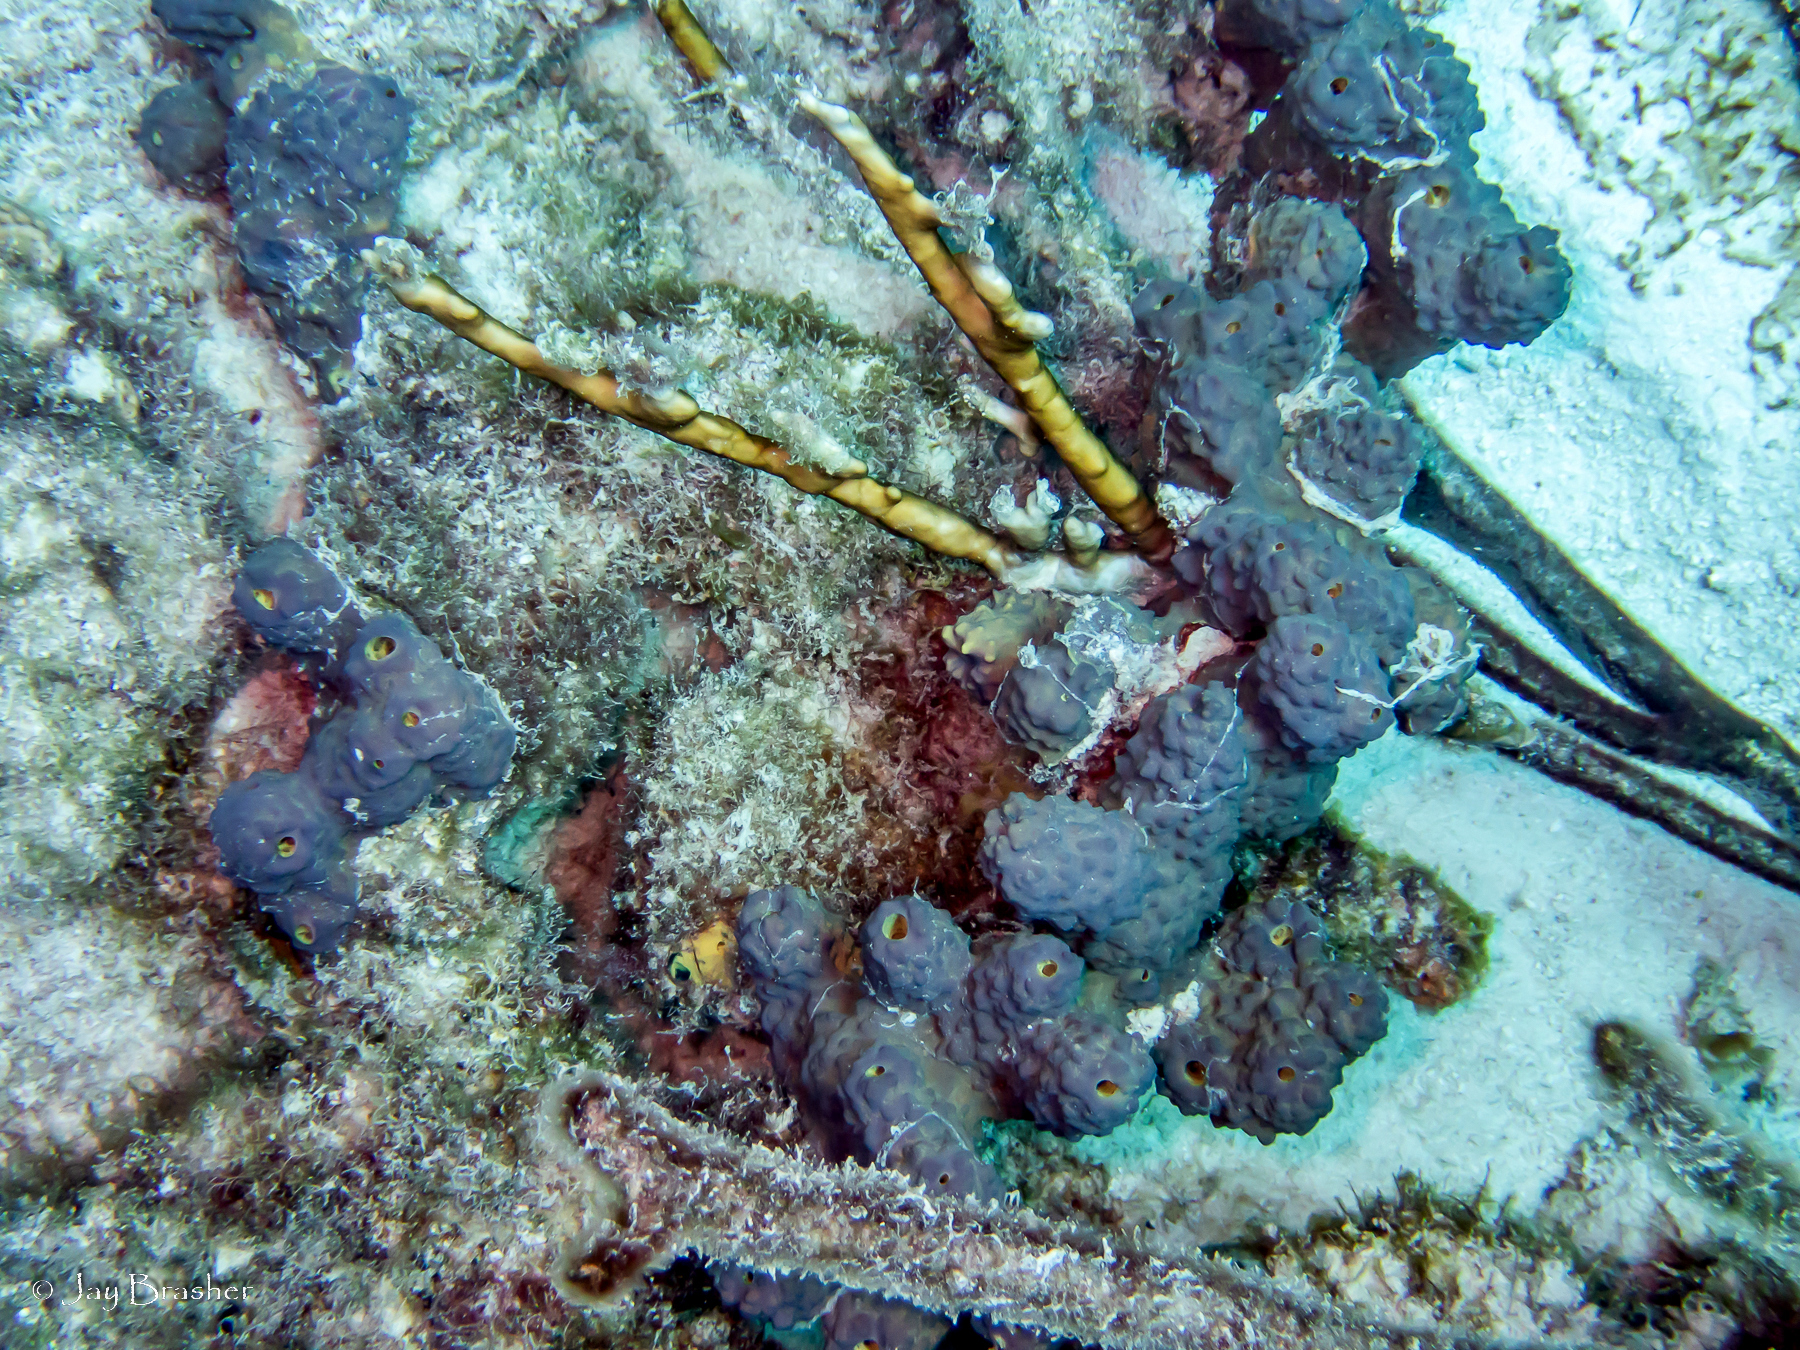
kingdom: Animalia
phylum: Porifera
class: Demospongiae
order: Verongiida
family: Aplysinidae
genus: Aiolochroia
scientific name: Aiolochroia crassa
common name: Branching tube sponge
